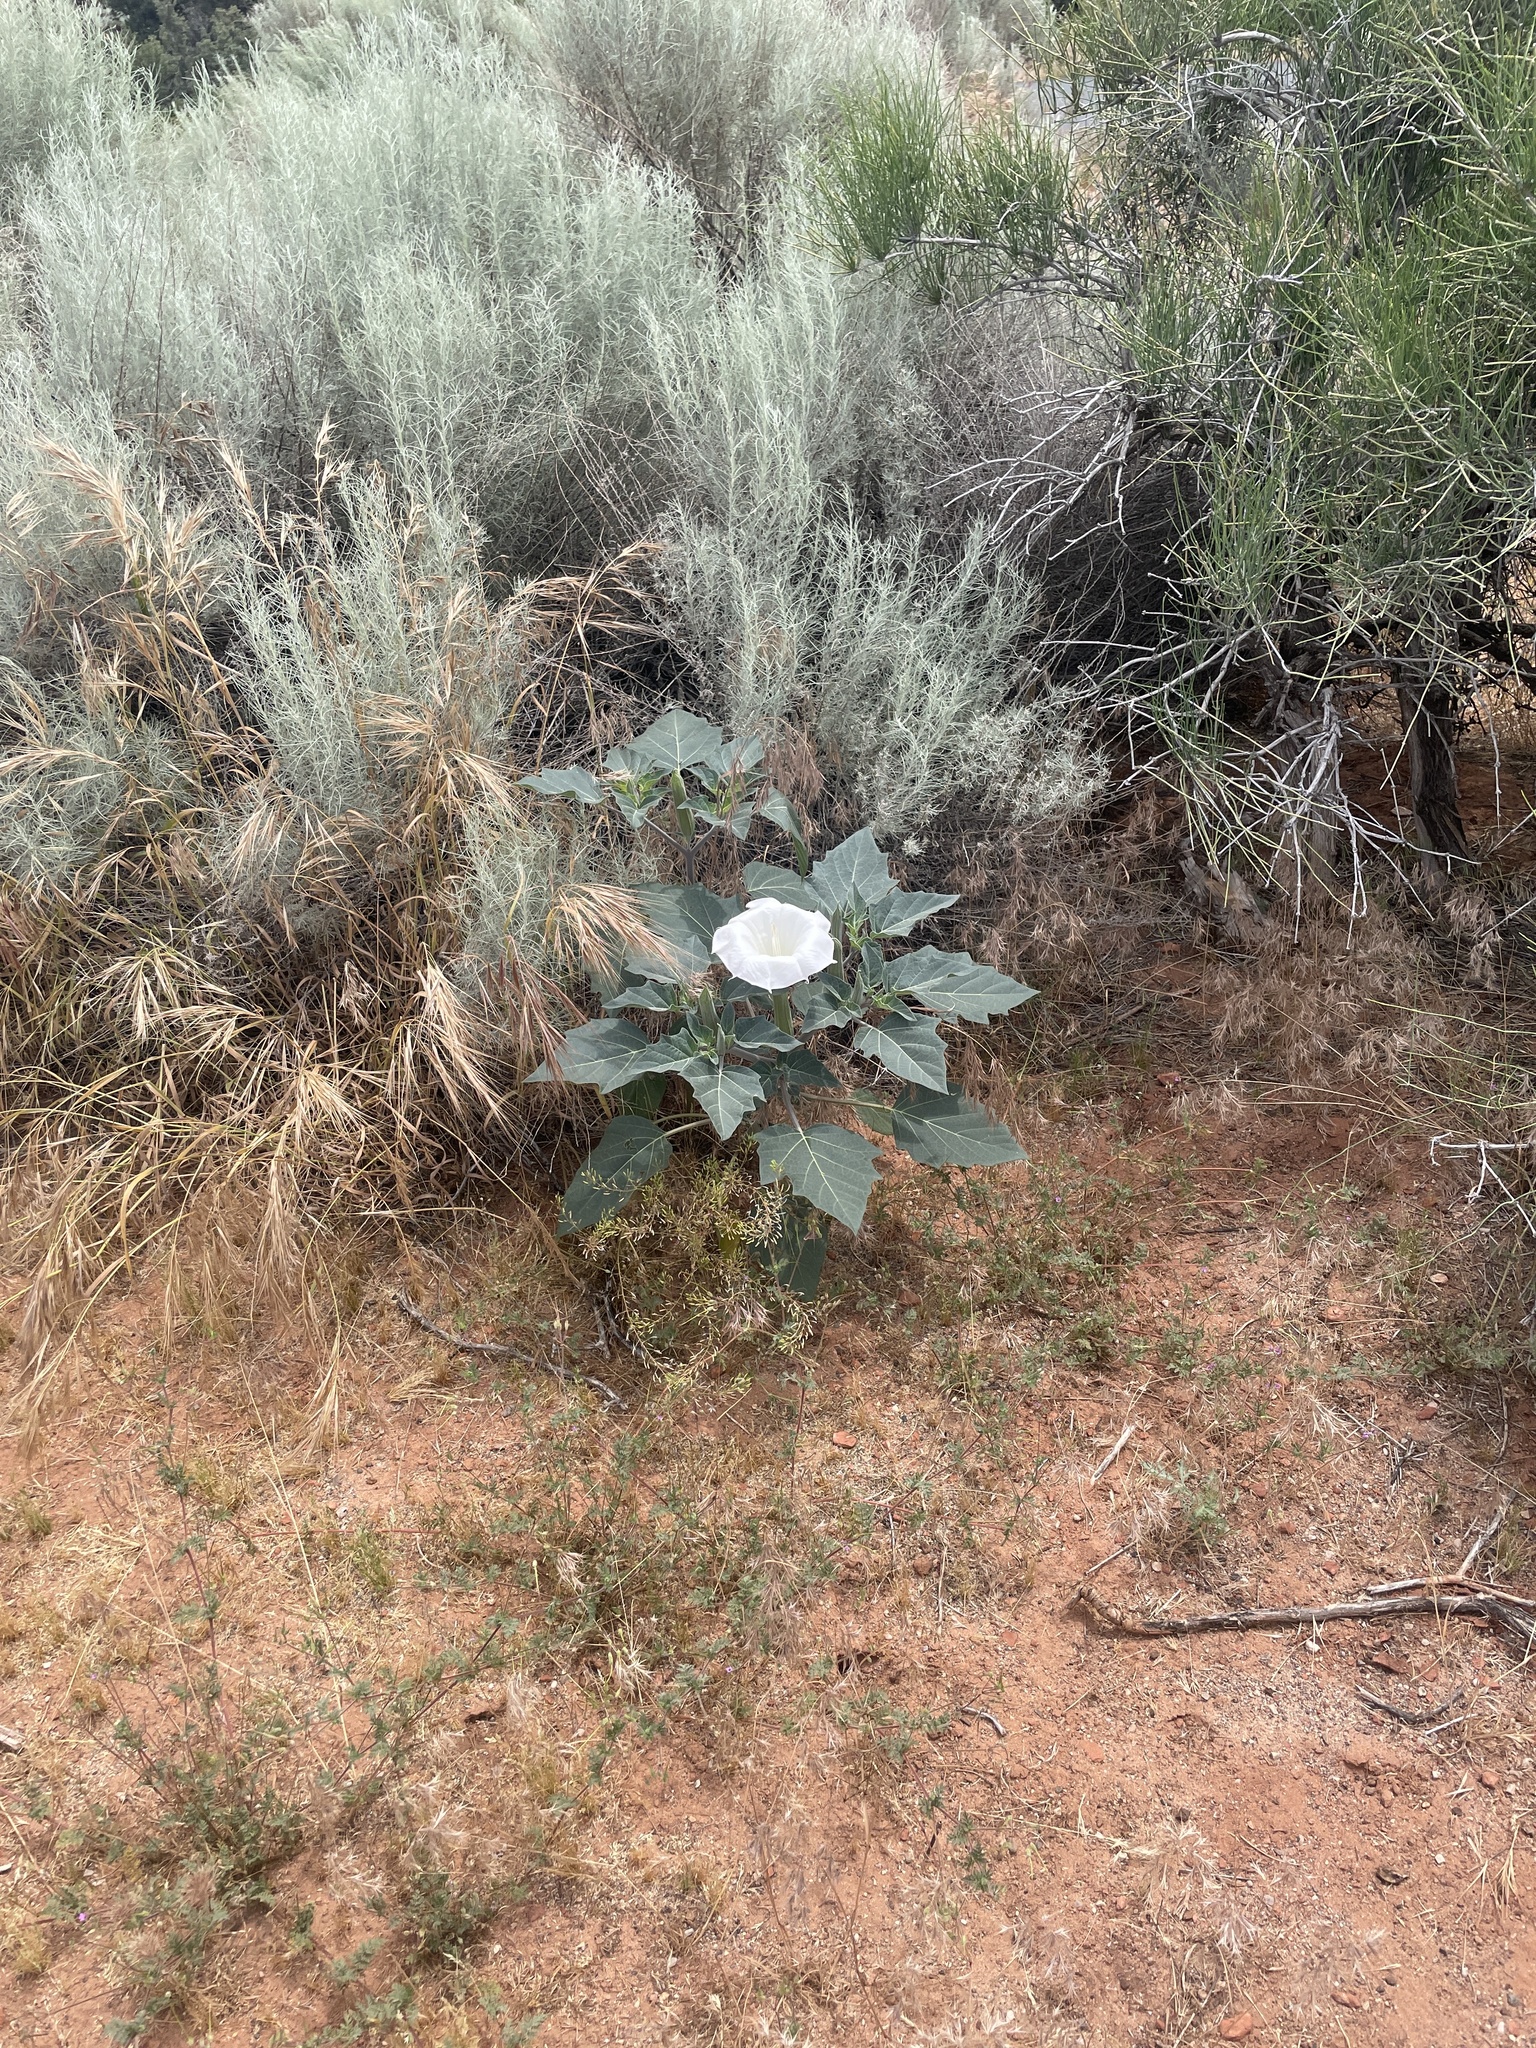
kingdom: Plantae
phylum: Tracheophyta
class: Magnoliopsida
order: Solanales
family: Solanaceae
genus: Datura
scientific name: Datura wrightii
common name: Sacred thorn-apple
